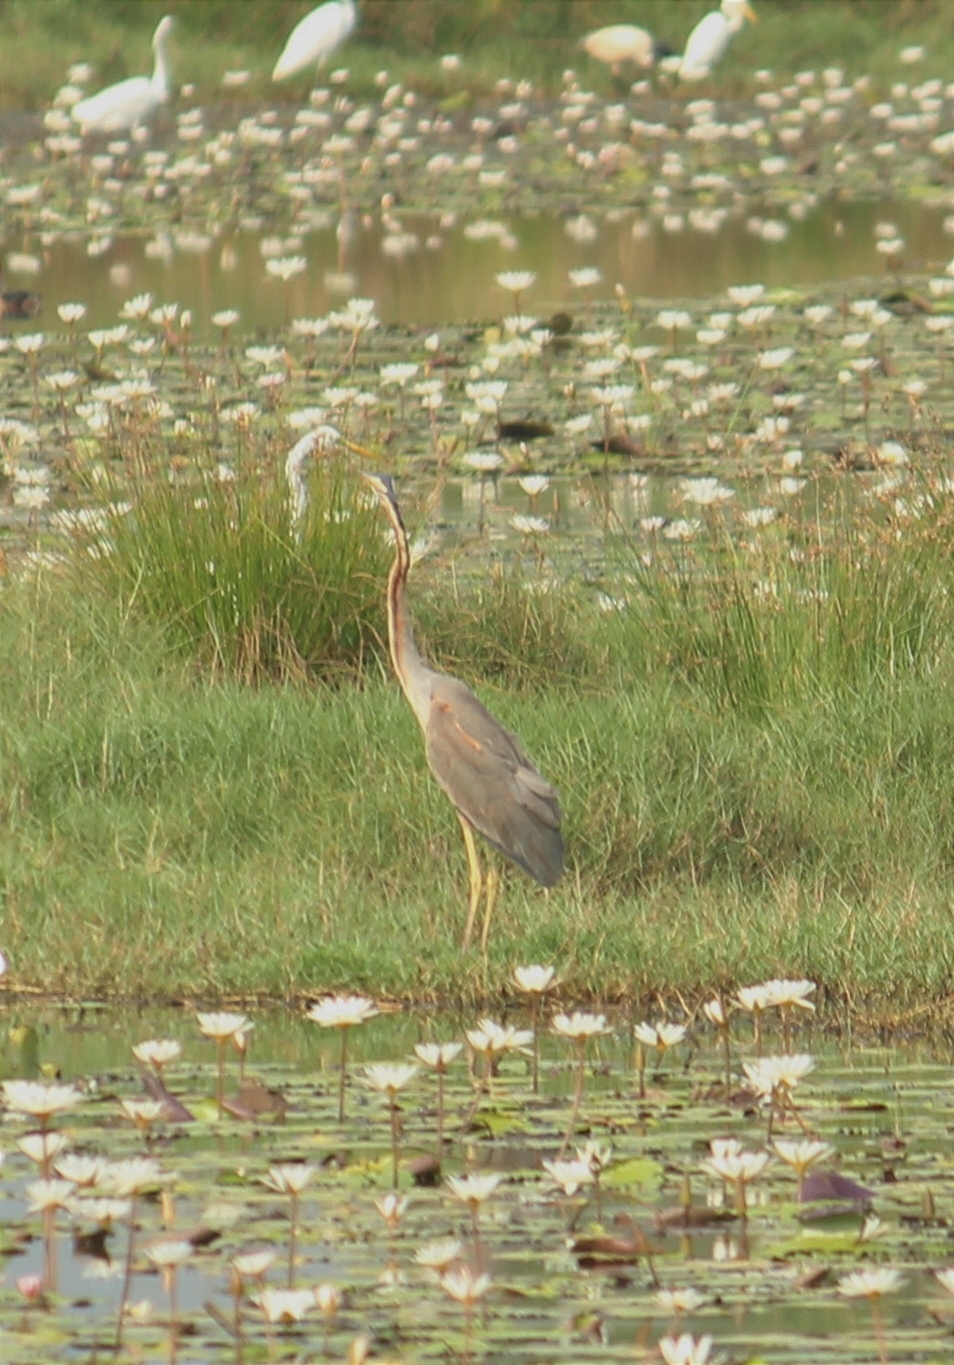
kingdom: Animalia
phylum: Chordata
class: Aves
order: Pelecaniformes
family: Ardeidae
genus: Ardea
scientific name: Ardea purpurea
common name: Purple heron
